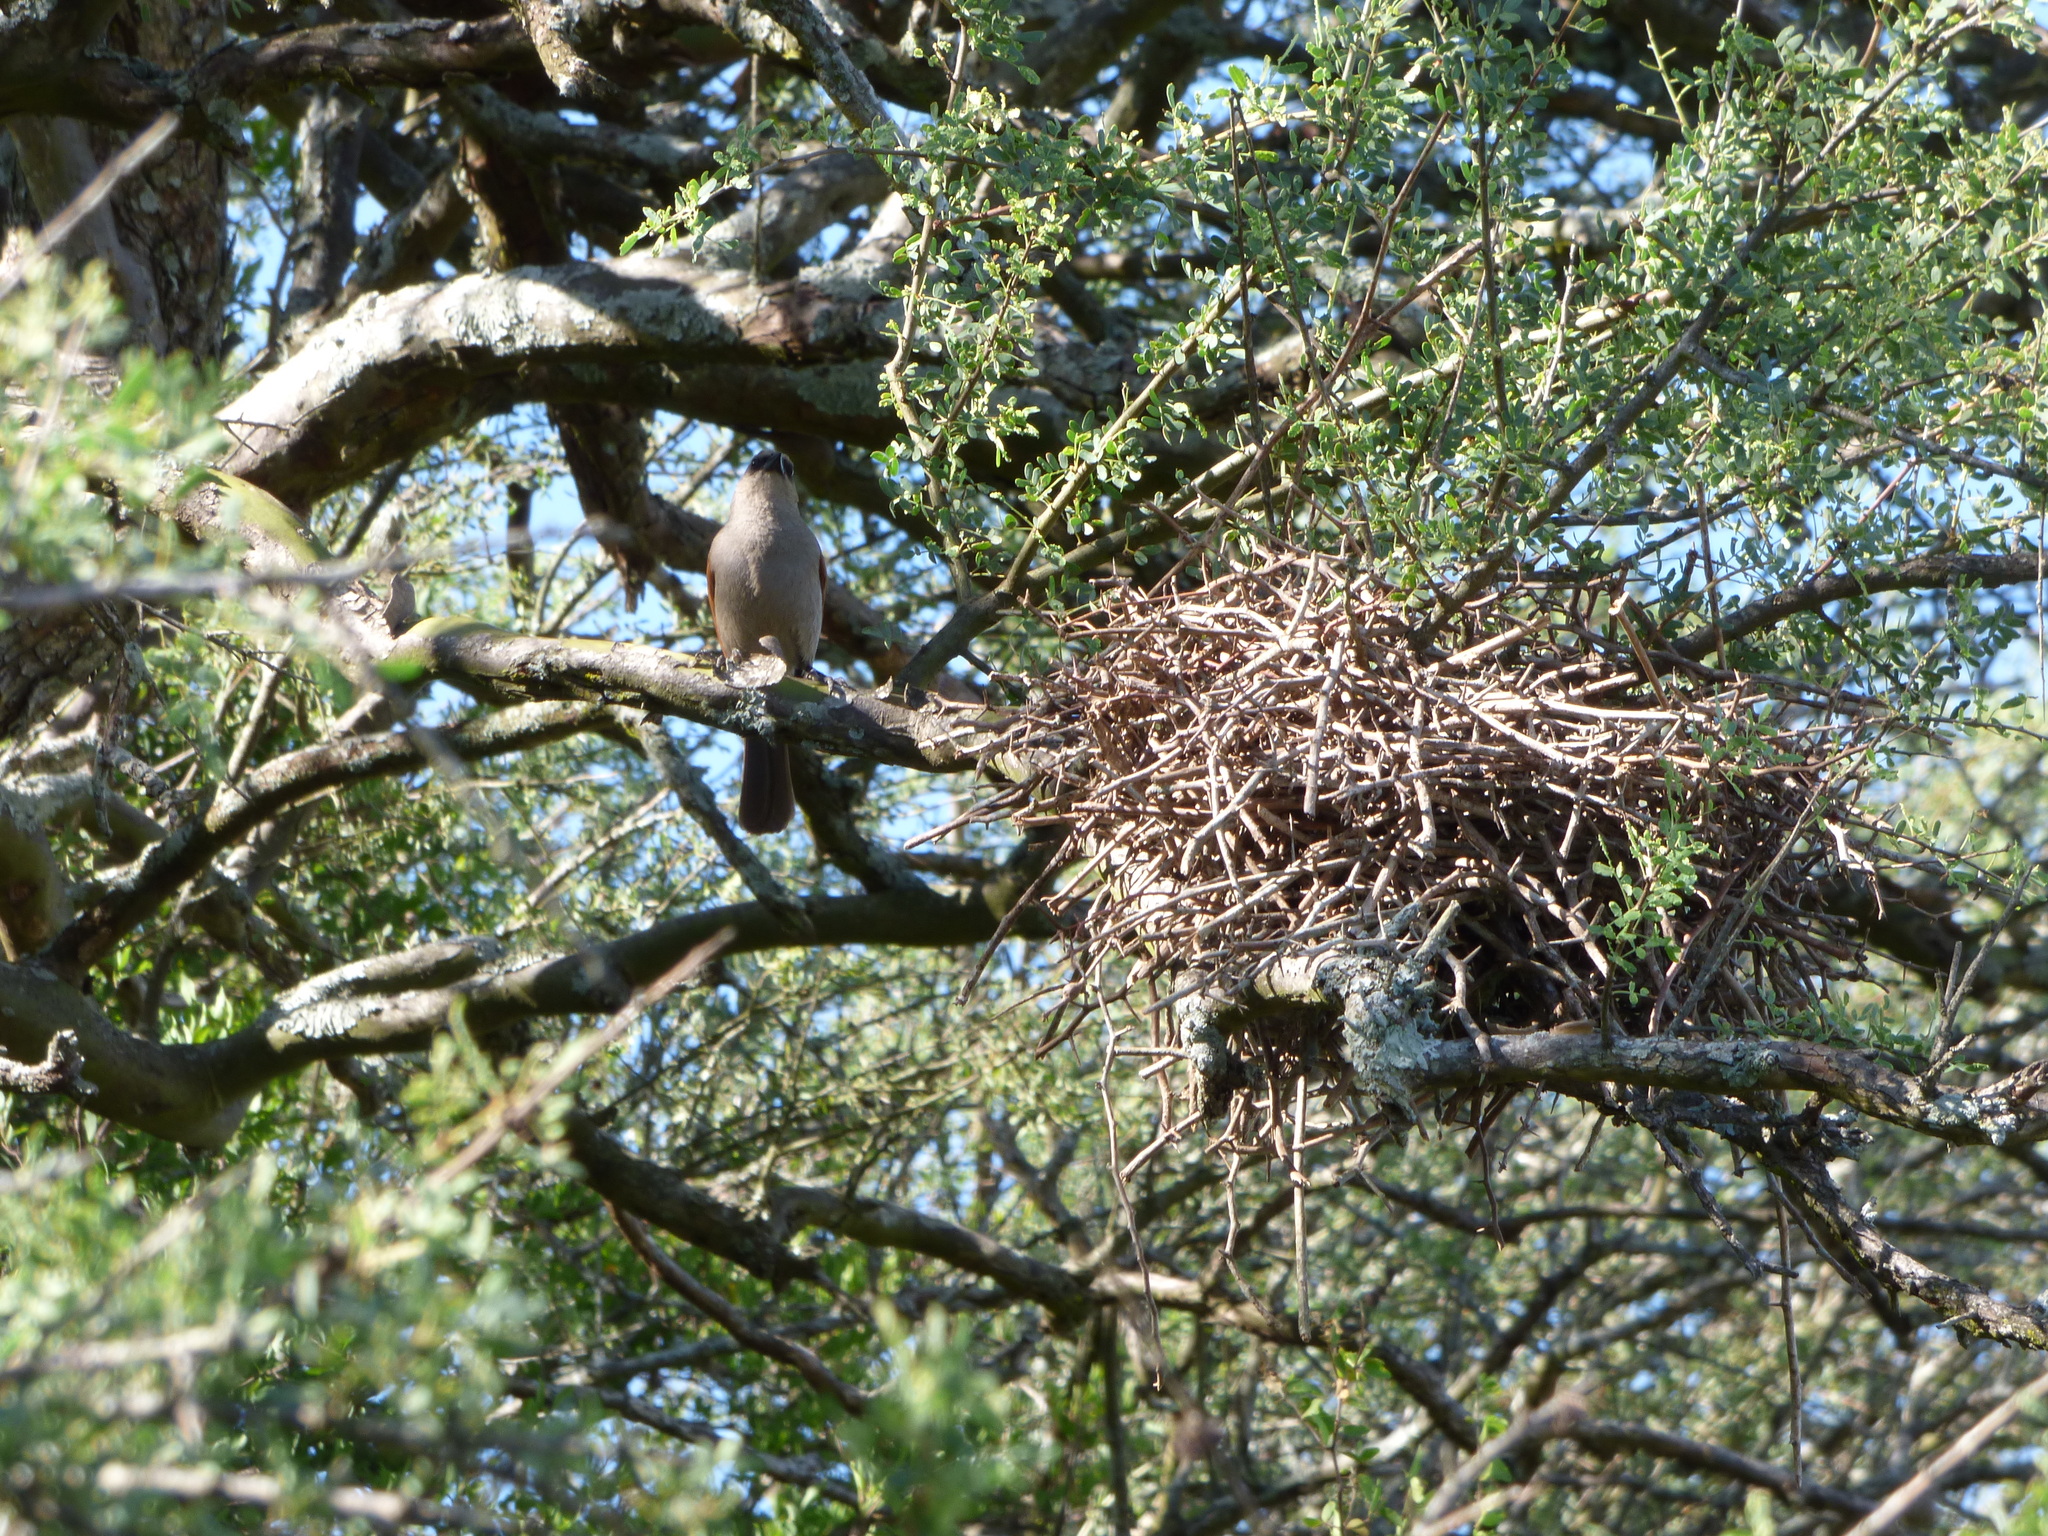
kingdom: Animalia
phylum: Chordata
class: Aves
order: Passeriformes
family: Icteridae
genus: Agelaioides
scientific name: Agelaioides badius
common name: Baywing
